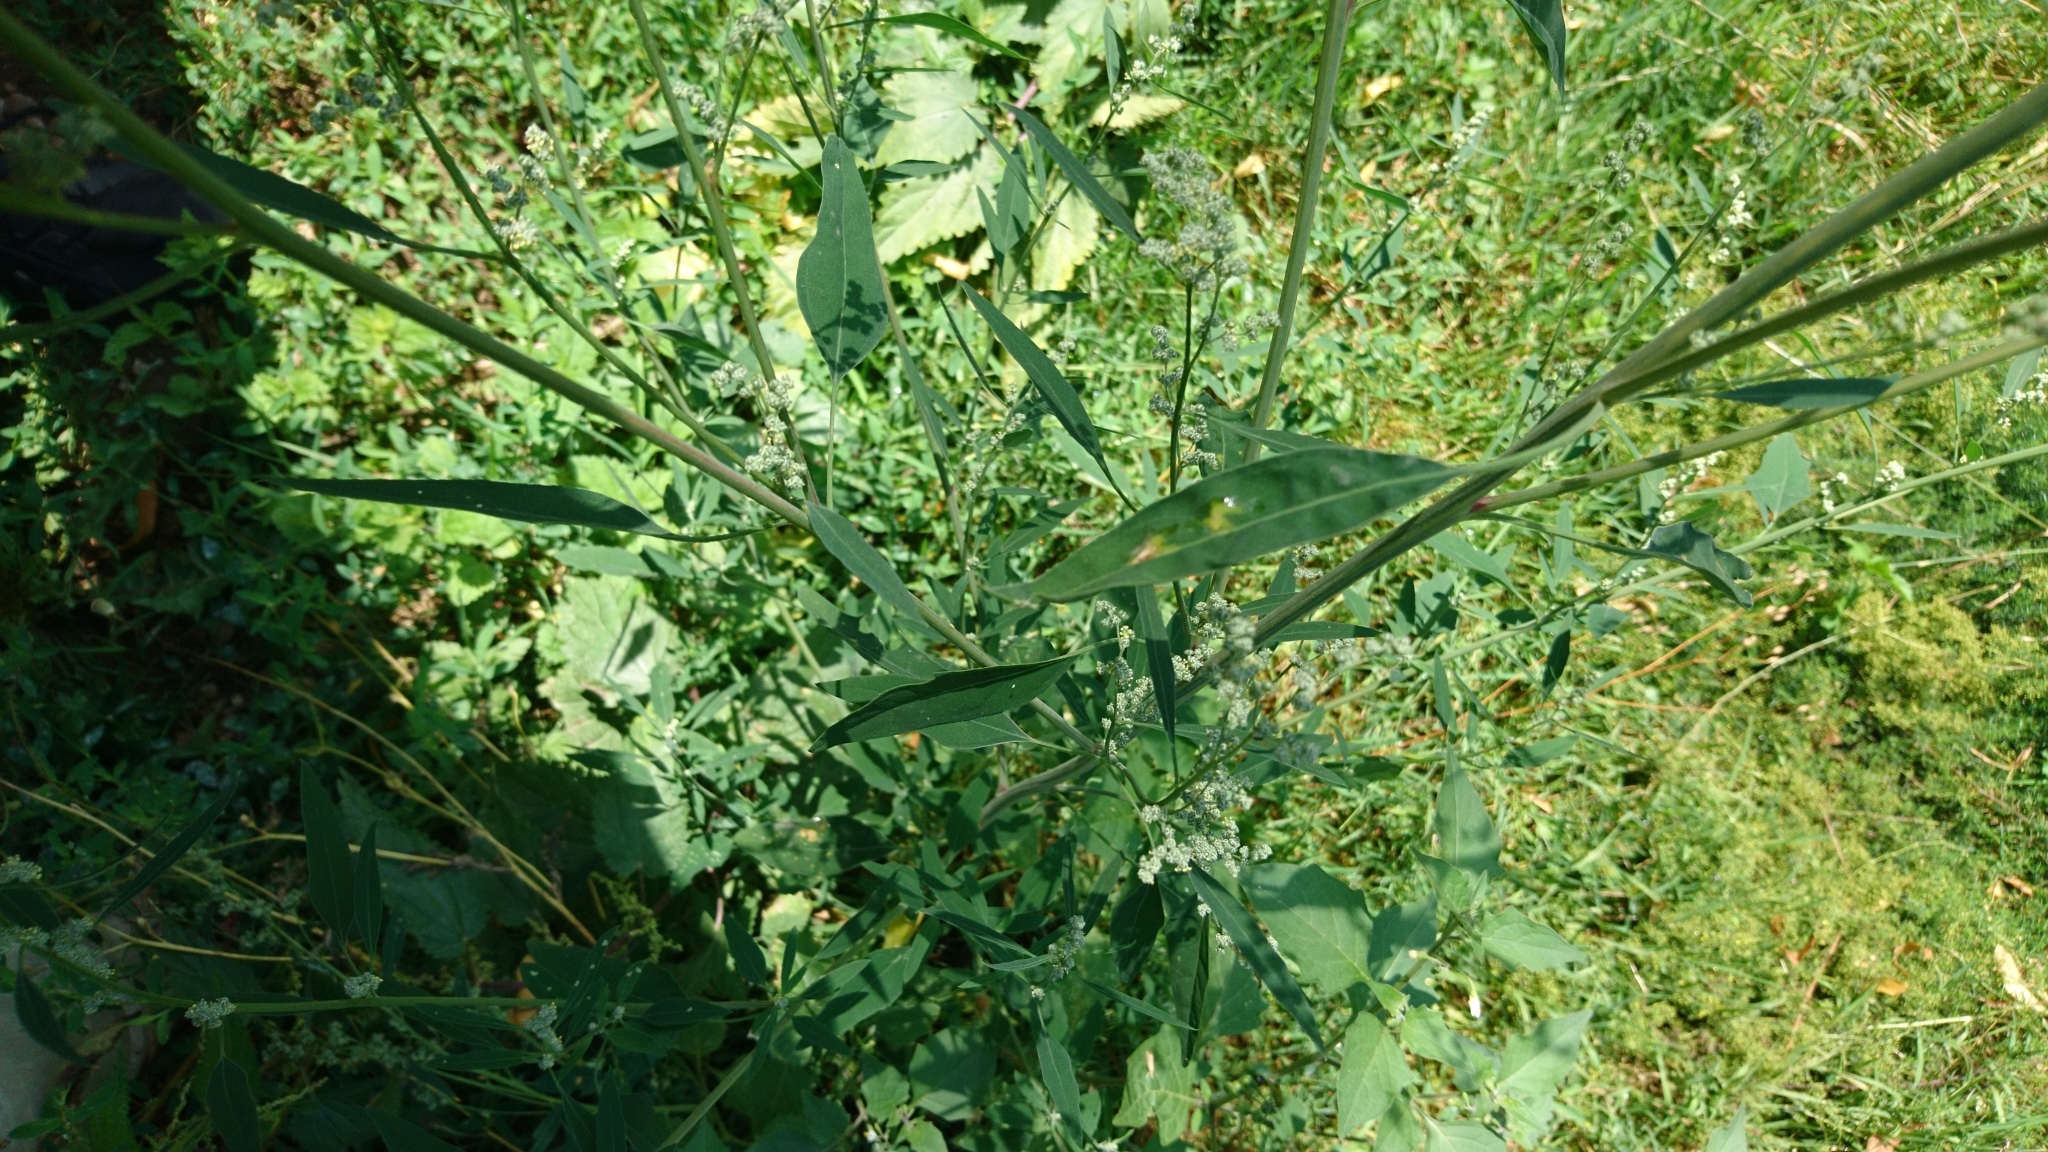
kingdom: Plantae
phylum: Tracheophyta
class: Magnoliopsida
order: Caryophyllales
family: Amaranthaceae
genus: Chenopodium
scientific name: Chenopodium album
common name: Fat-hen
